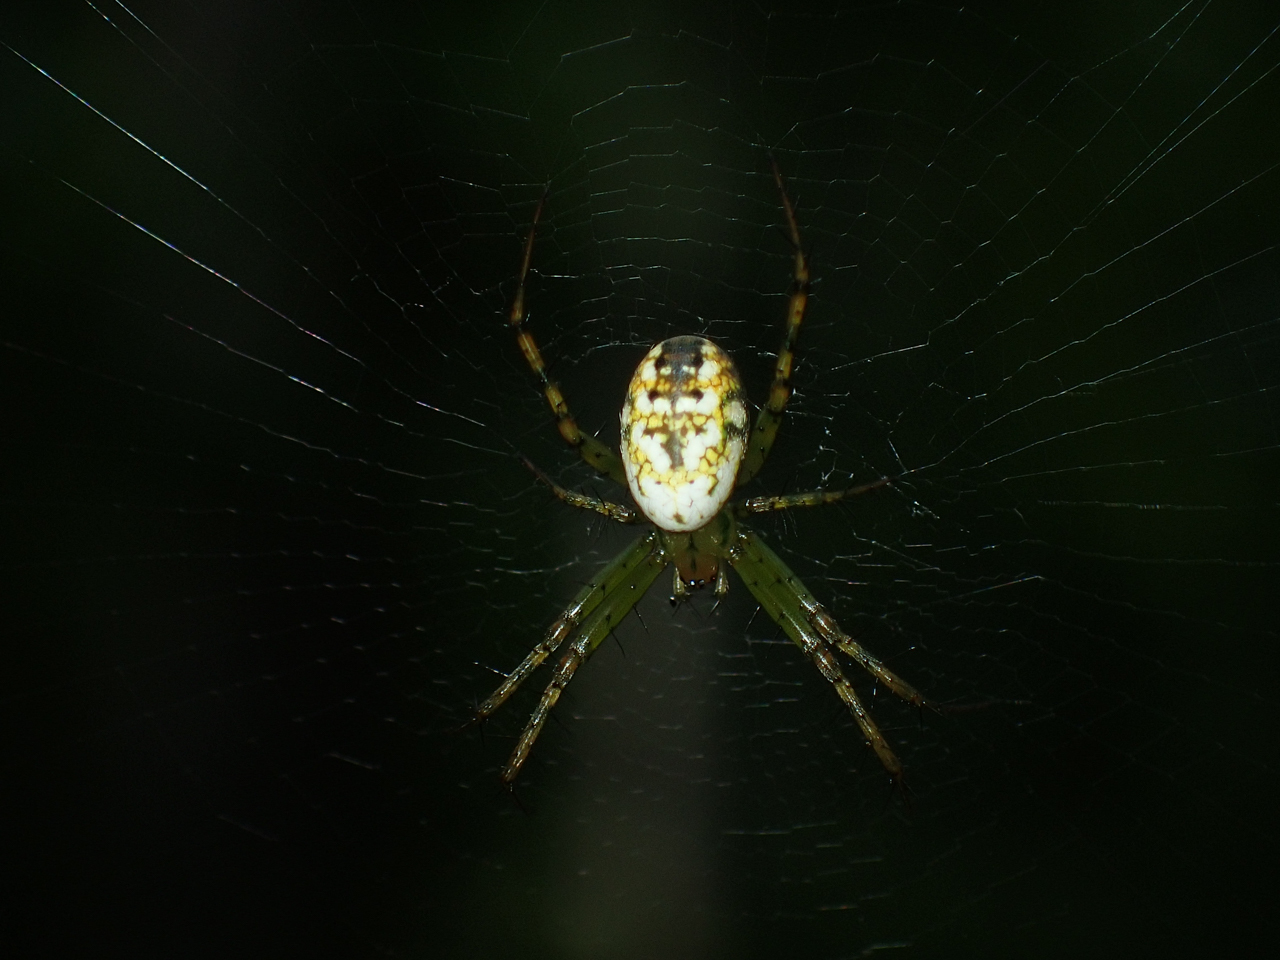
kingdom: Animalia
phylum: Arthropoda
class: Arachnida
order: Araneae
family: Araneidae
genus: Mangora
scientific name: Mangora spiculata
